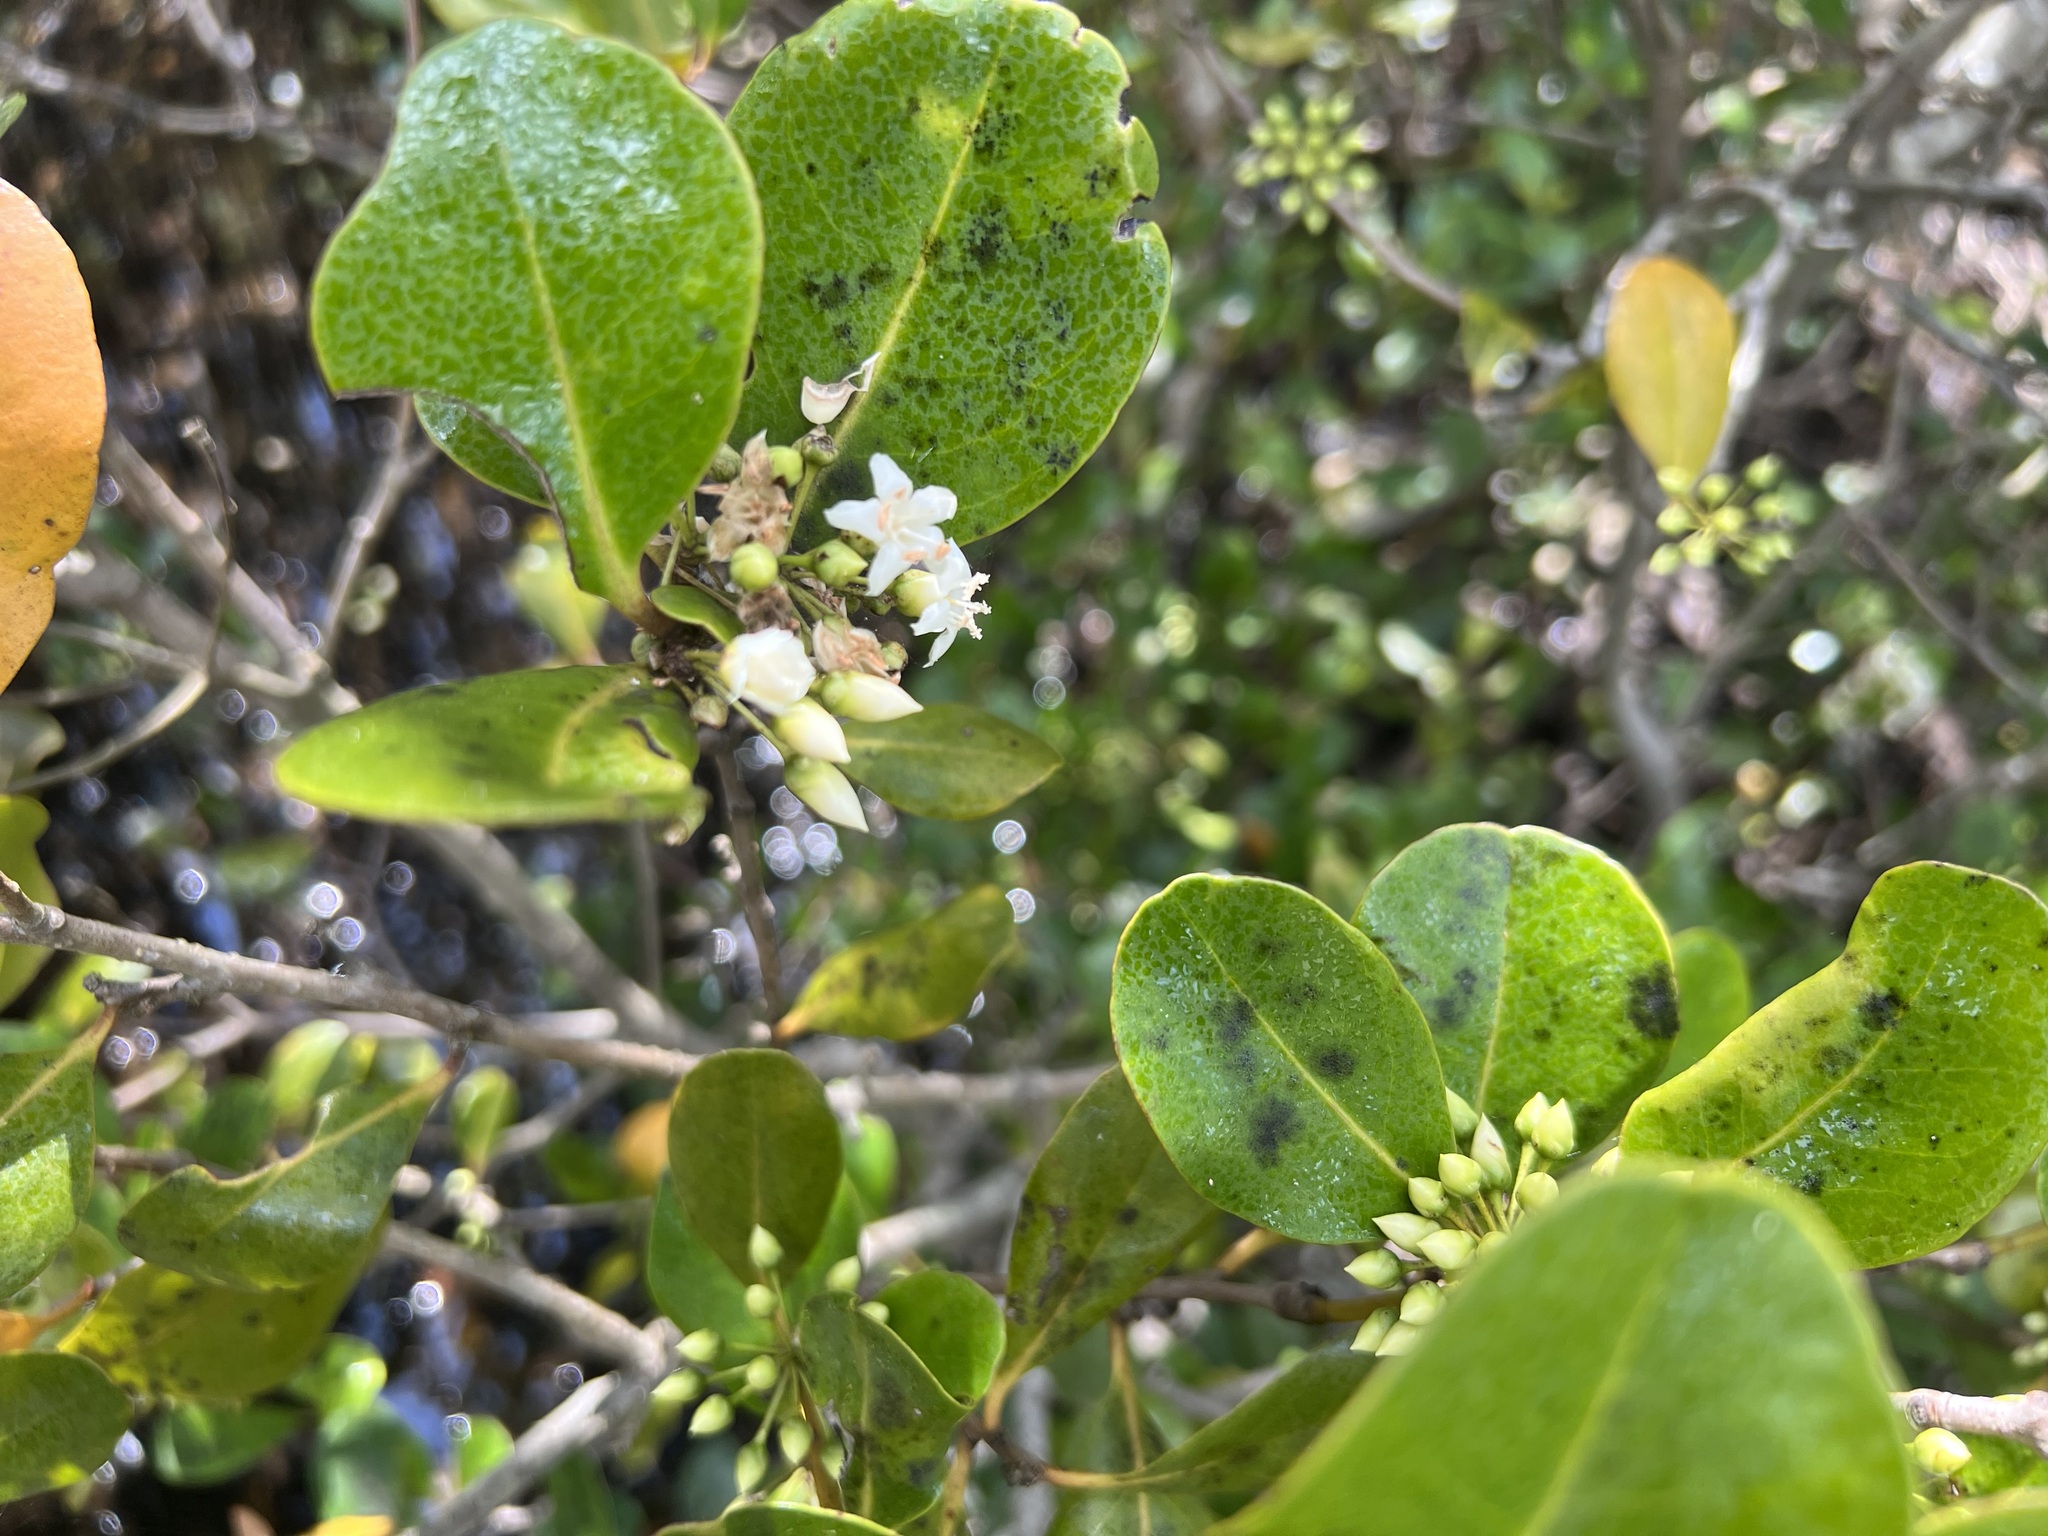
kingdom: Plantae
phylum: Tracheophyta
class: Magnoliopsida
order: Ericales
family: Primulaceae
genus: Aegiceras
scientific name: Aegiceras corniculatum
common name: River mangrove
